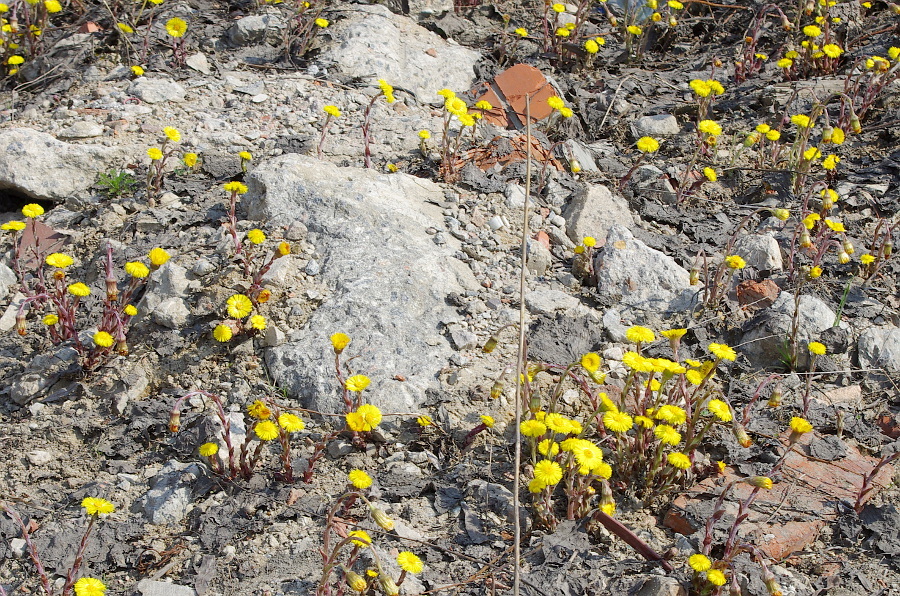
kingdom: Plantae
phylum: Tracheophyta
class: Magnoliopsida
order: Asterales
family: Asteraceae
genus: Tussilago
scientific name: Tussilago farfara
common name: Coltsfoot
